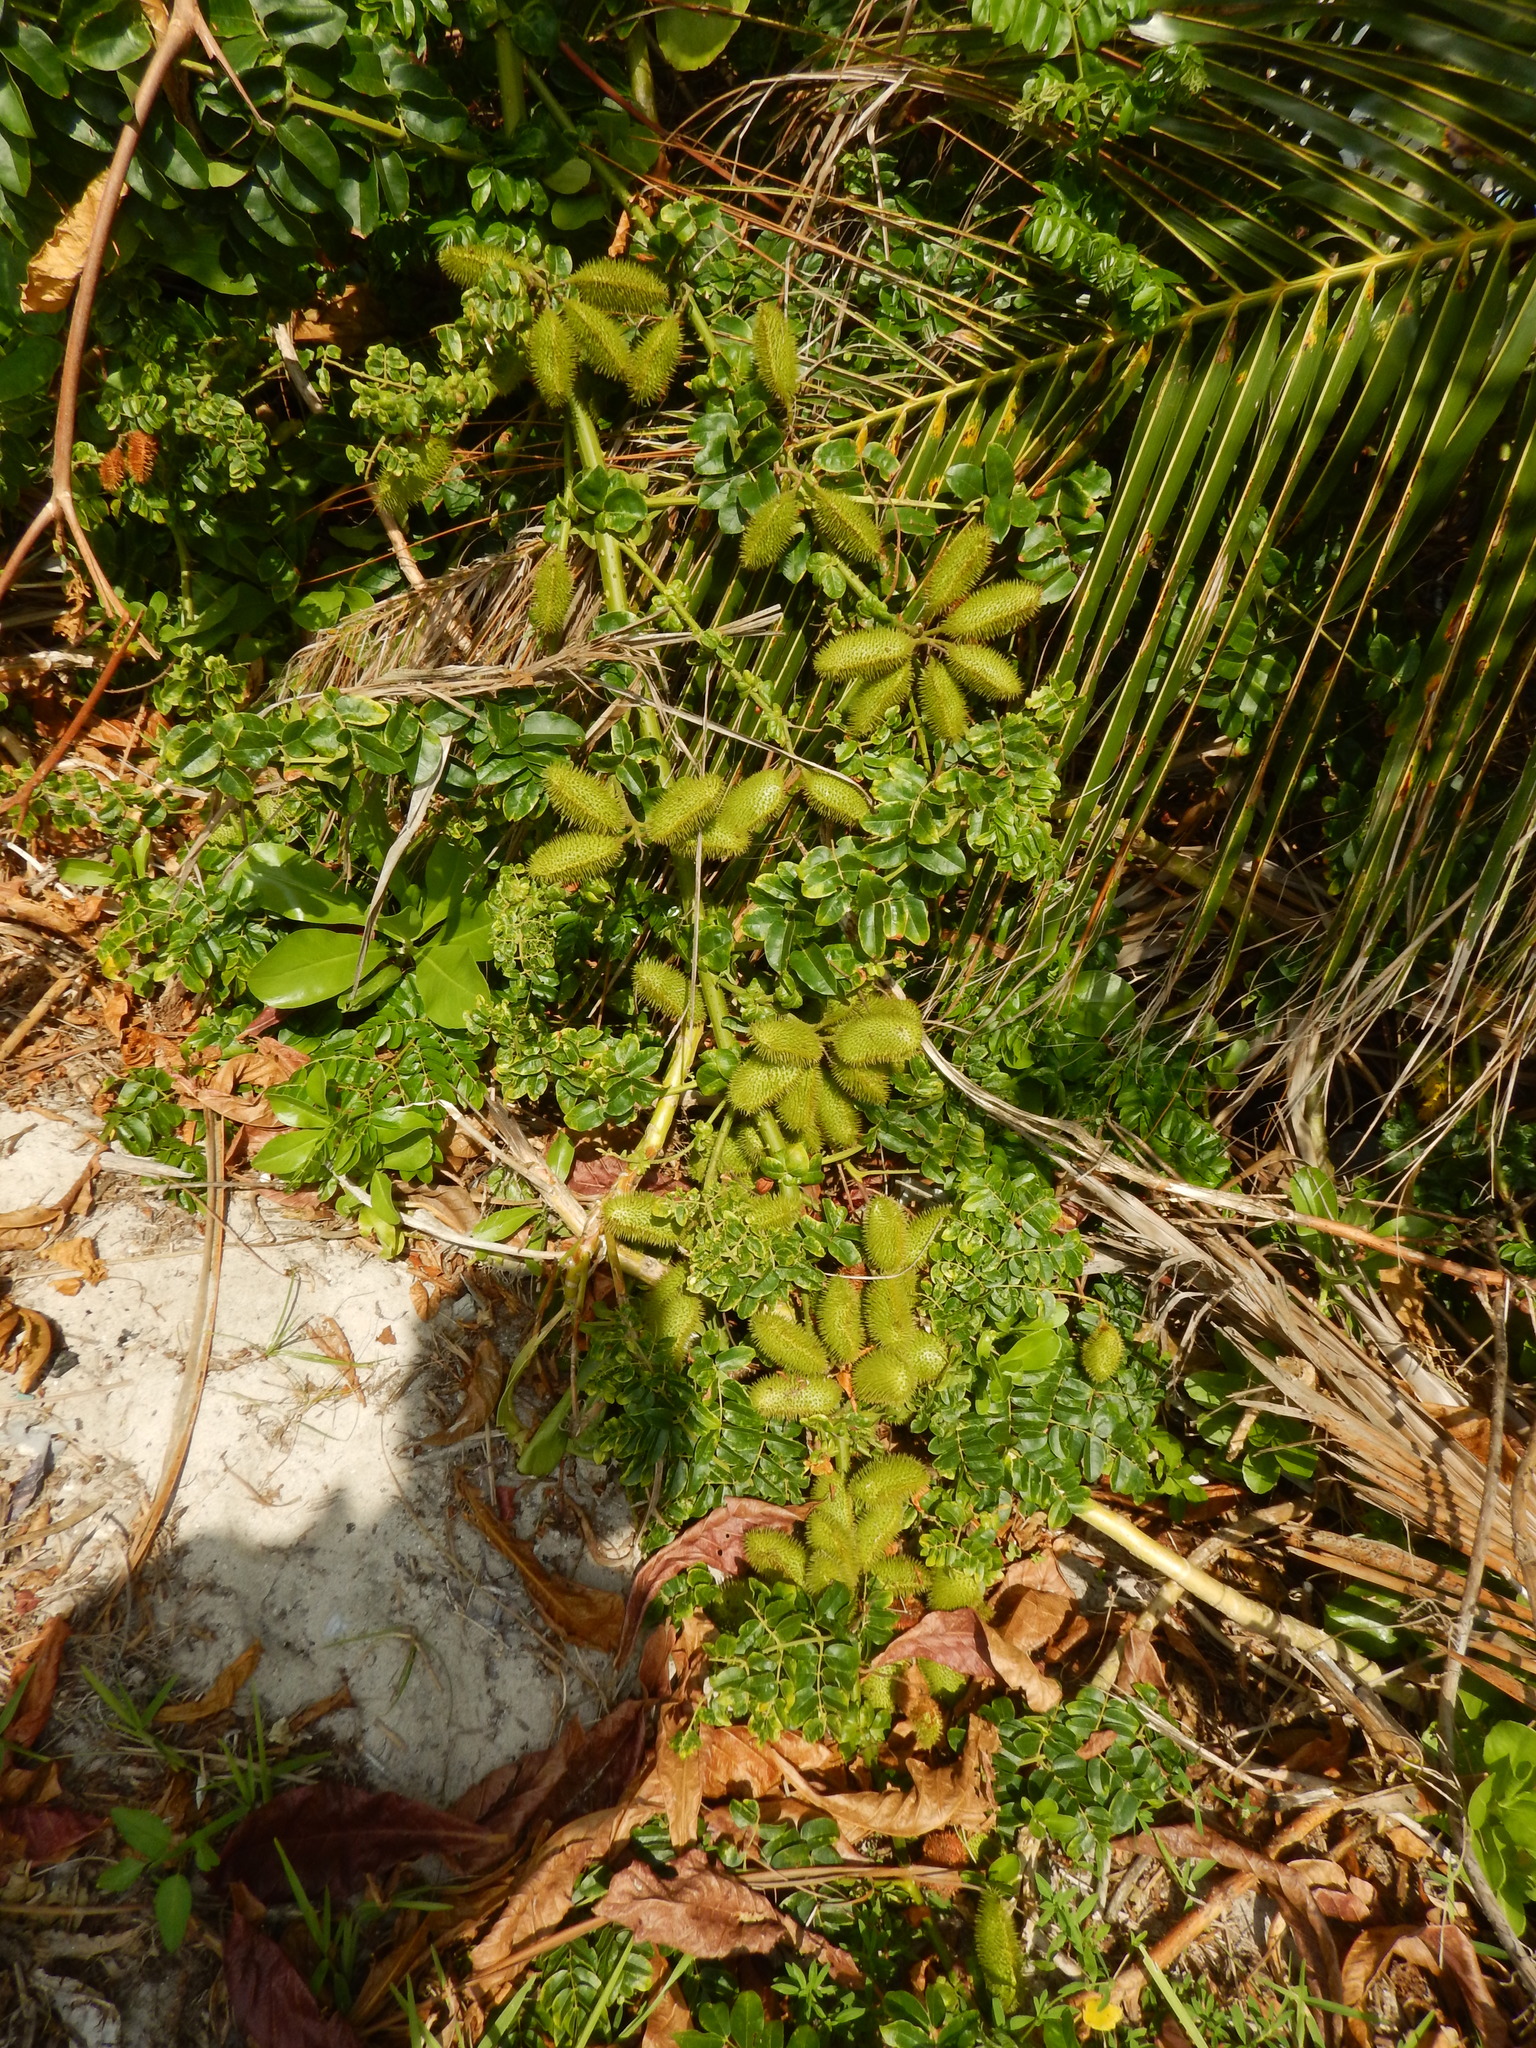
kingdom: Plantae
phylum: Tracheophyta
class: Magnoliopsida
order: Fabales
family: Fabaceae
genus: Guilandina
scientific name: Guilandina bonduc
